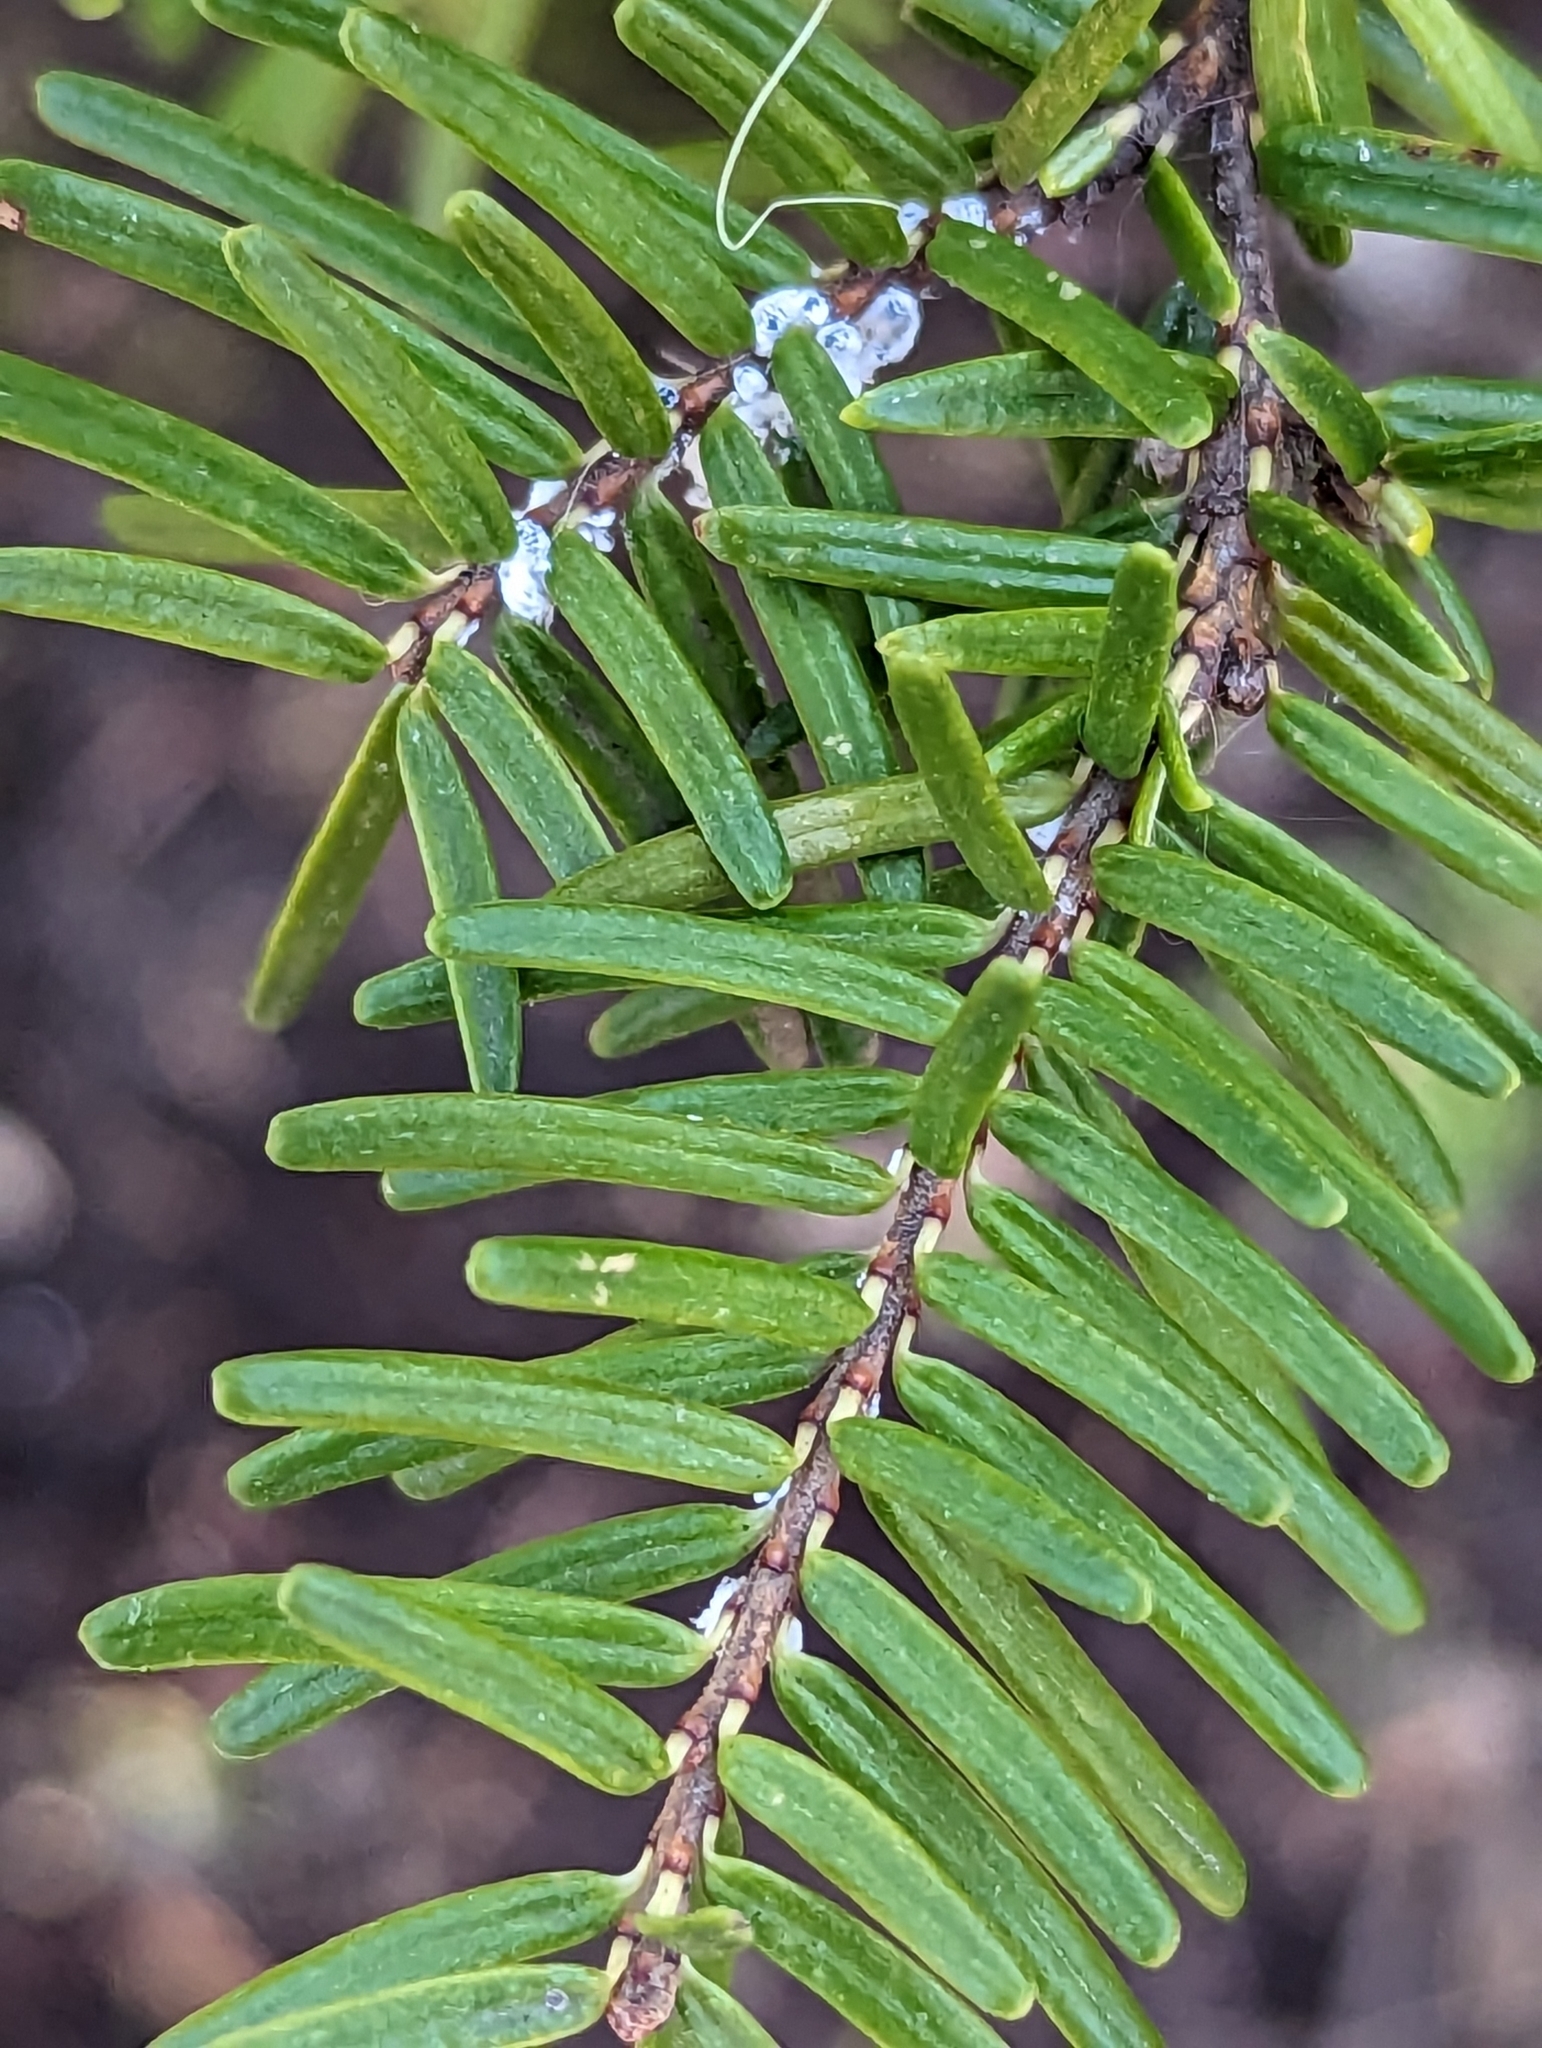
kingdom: Animalia
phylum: Arthropoda
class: Insecta
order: Hemiptera
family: Adelgidae
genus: Adelges
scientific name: Adelges tsugae
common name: Hemlock woolly adelgid
